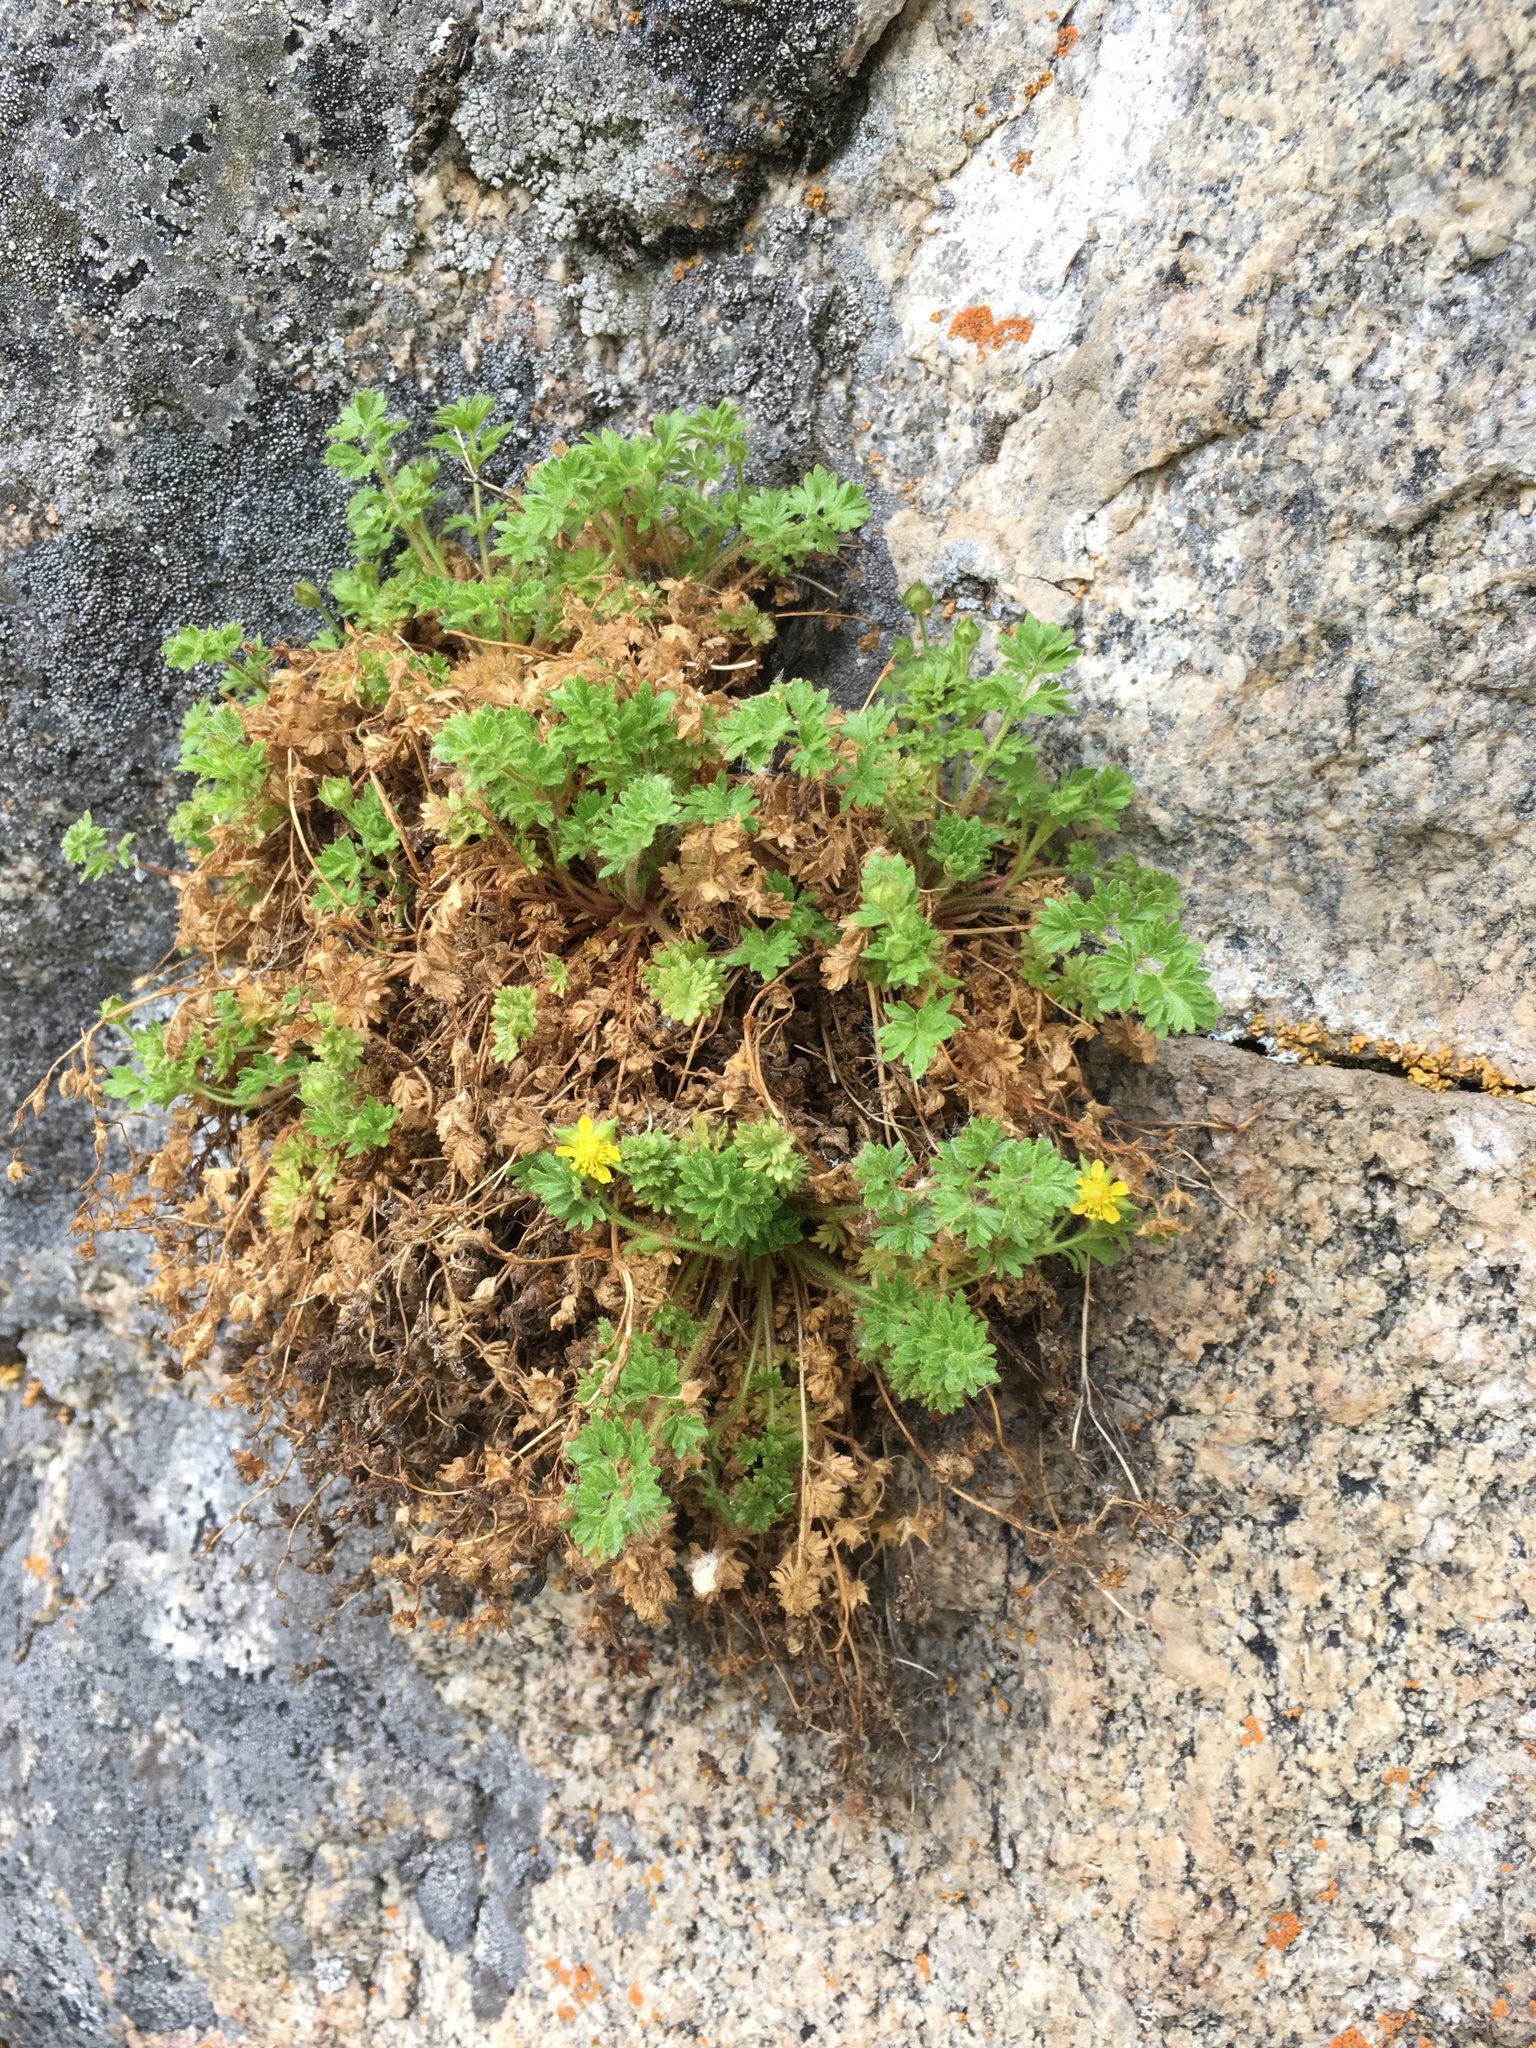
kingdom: Plantae
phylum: Tracheophyta
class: Magnoliopsida
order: Rosales
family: Rosaceae
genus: Potentilla
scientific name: Potentilla saxosa
